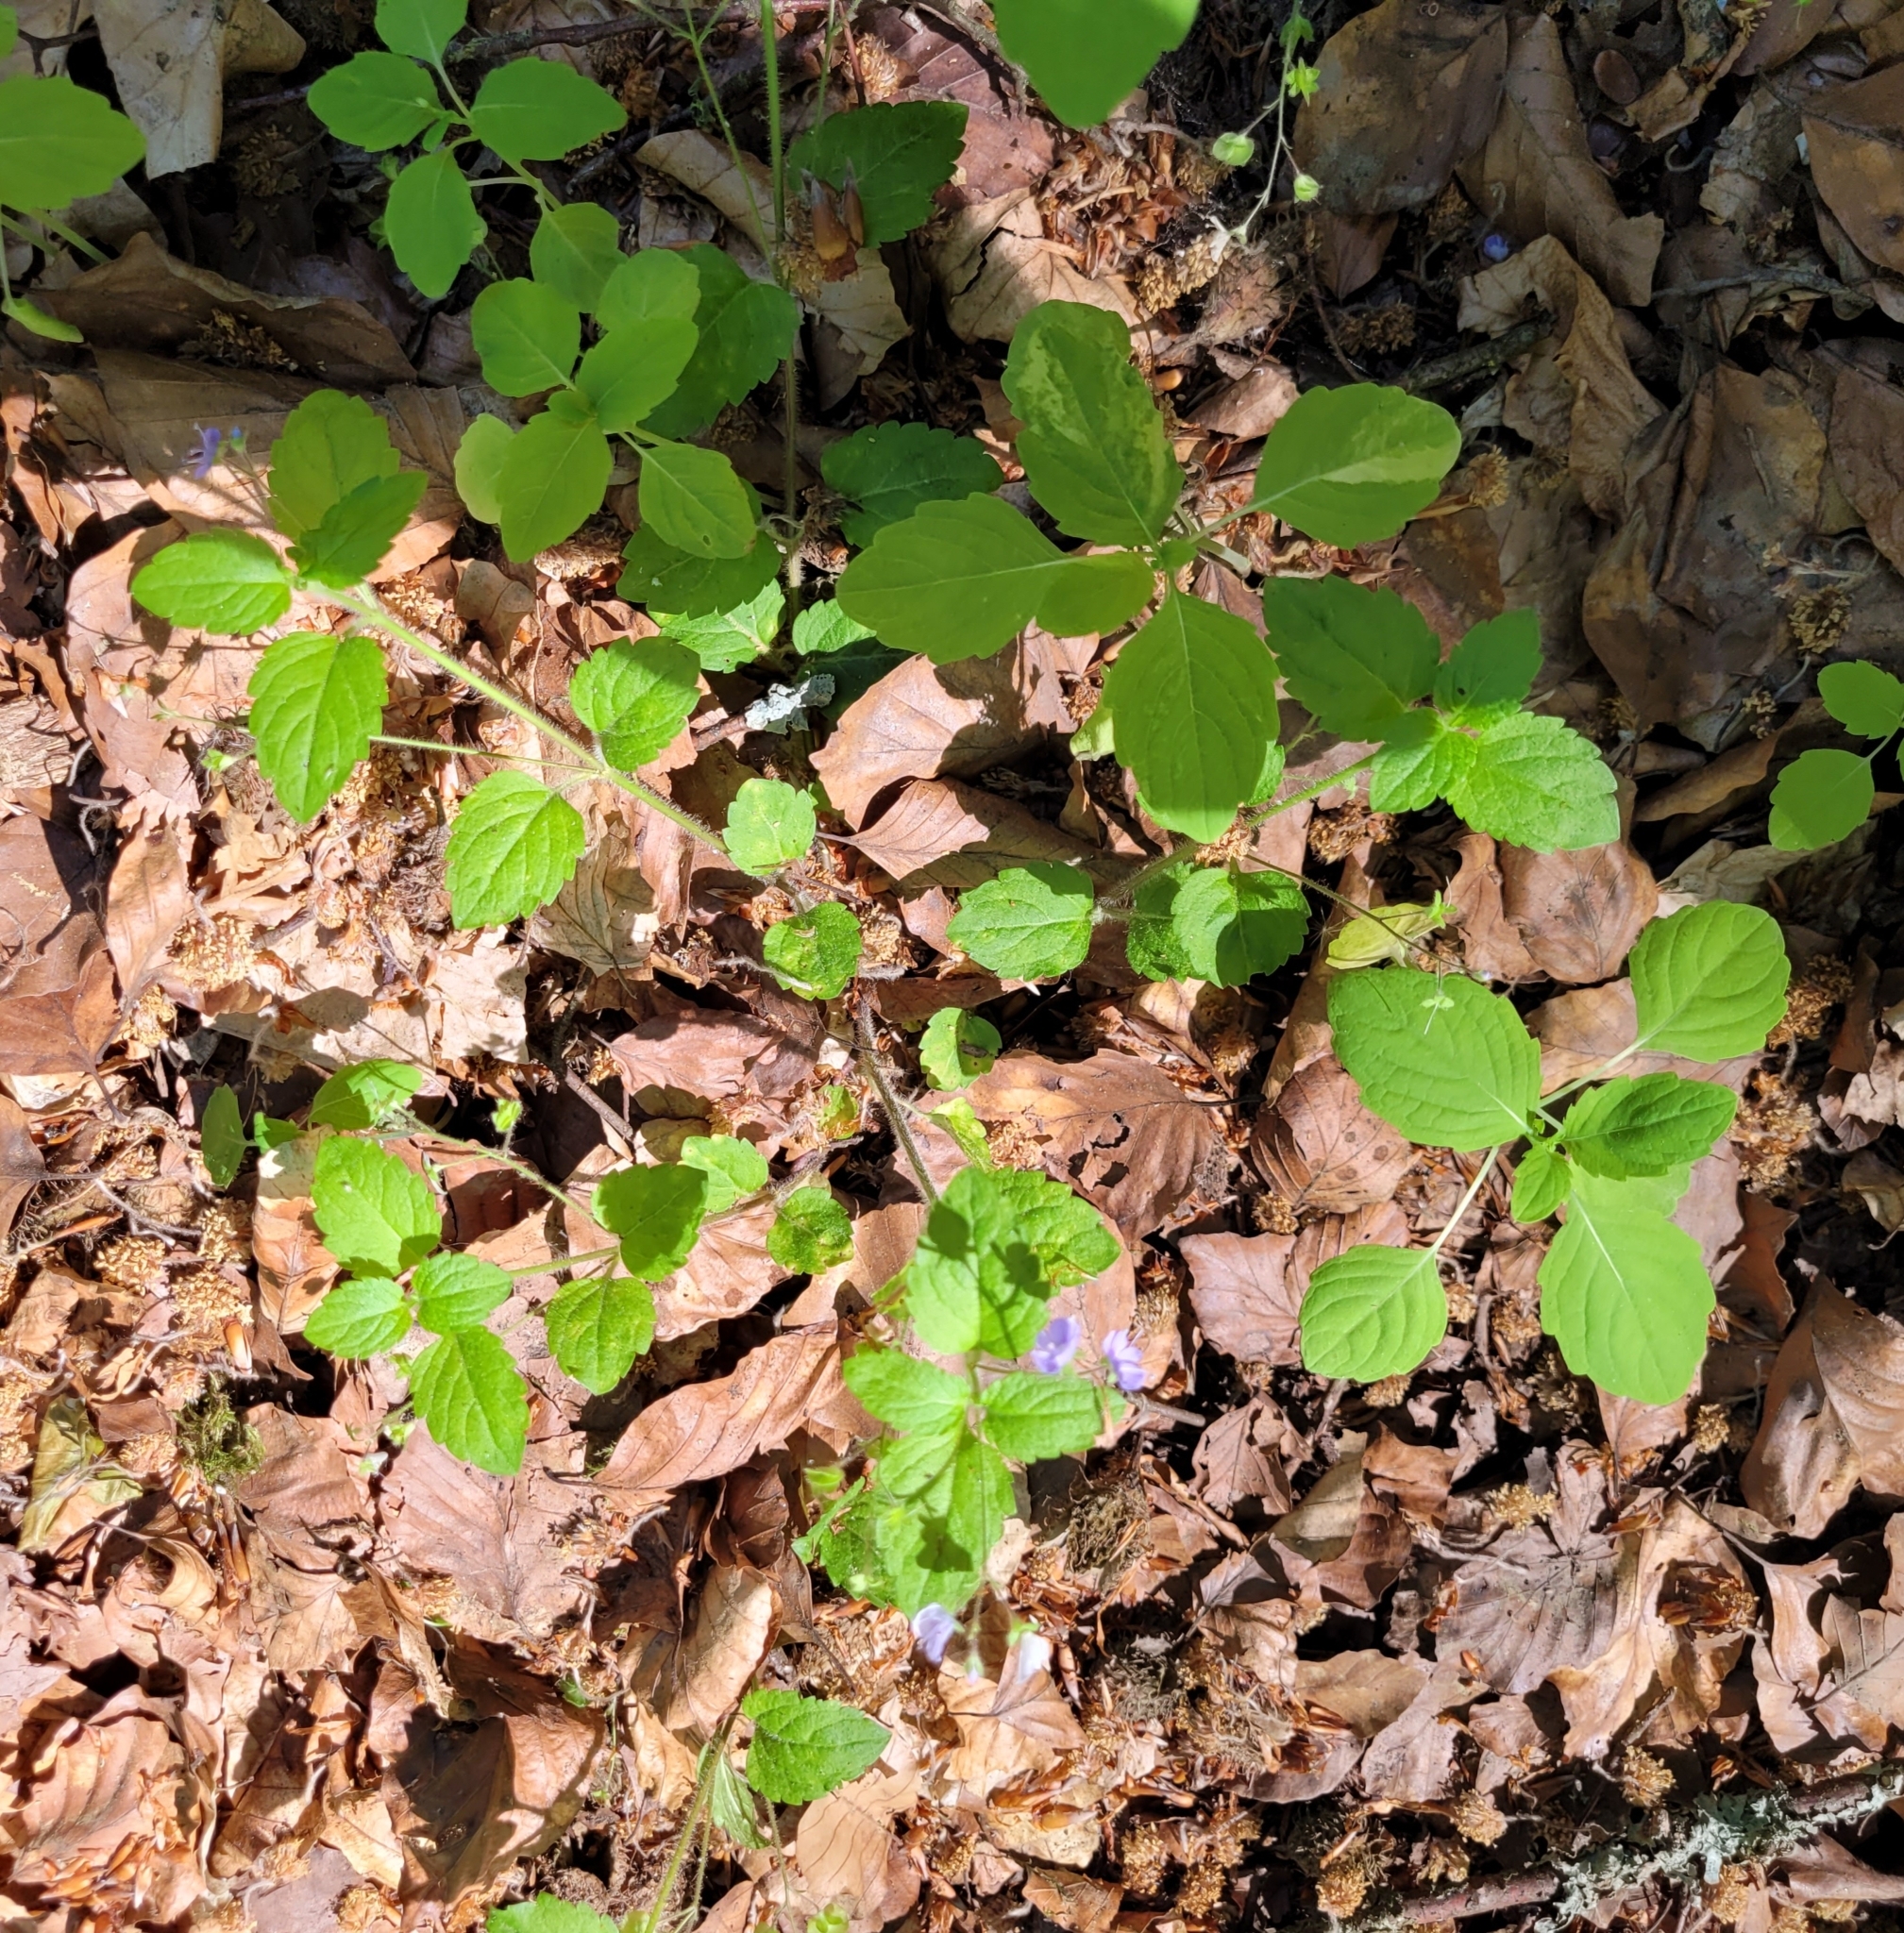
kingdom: Plantae
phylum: Tracheophyta
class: Magnoliopsida
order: Lamiales
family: Plantaginaceae
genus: Veronica
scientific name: Veronica montana
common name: Wood speedwell
